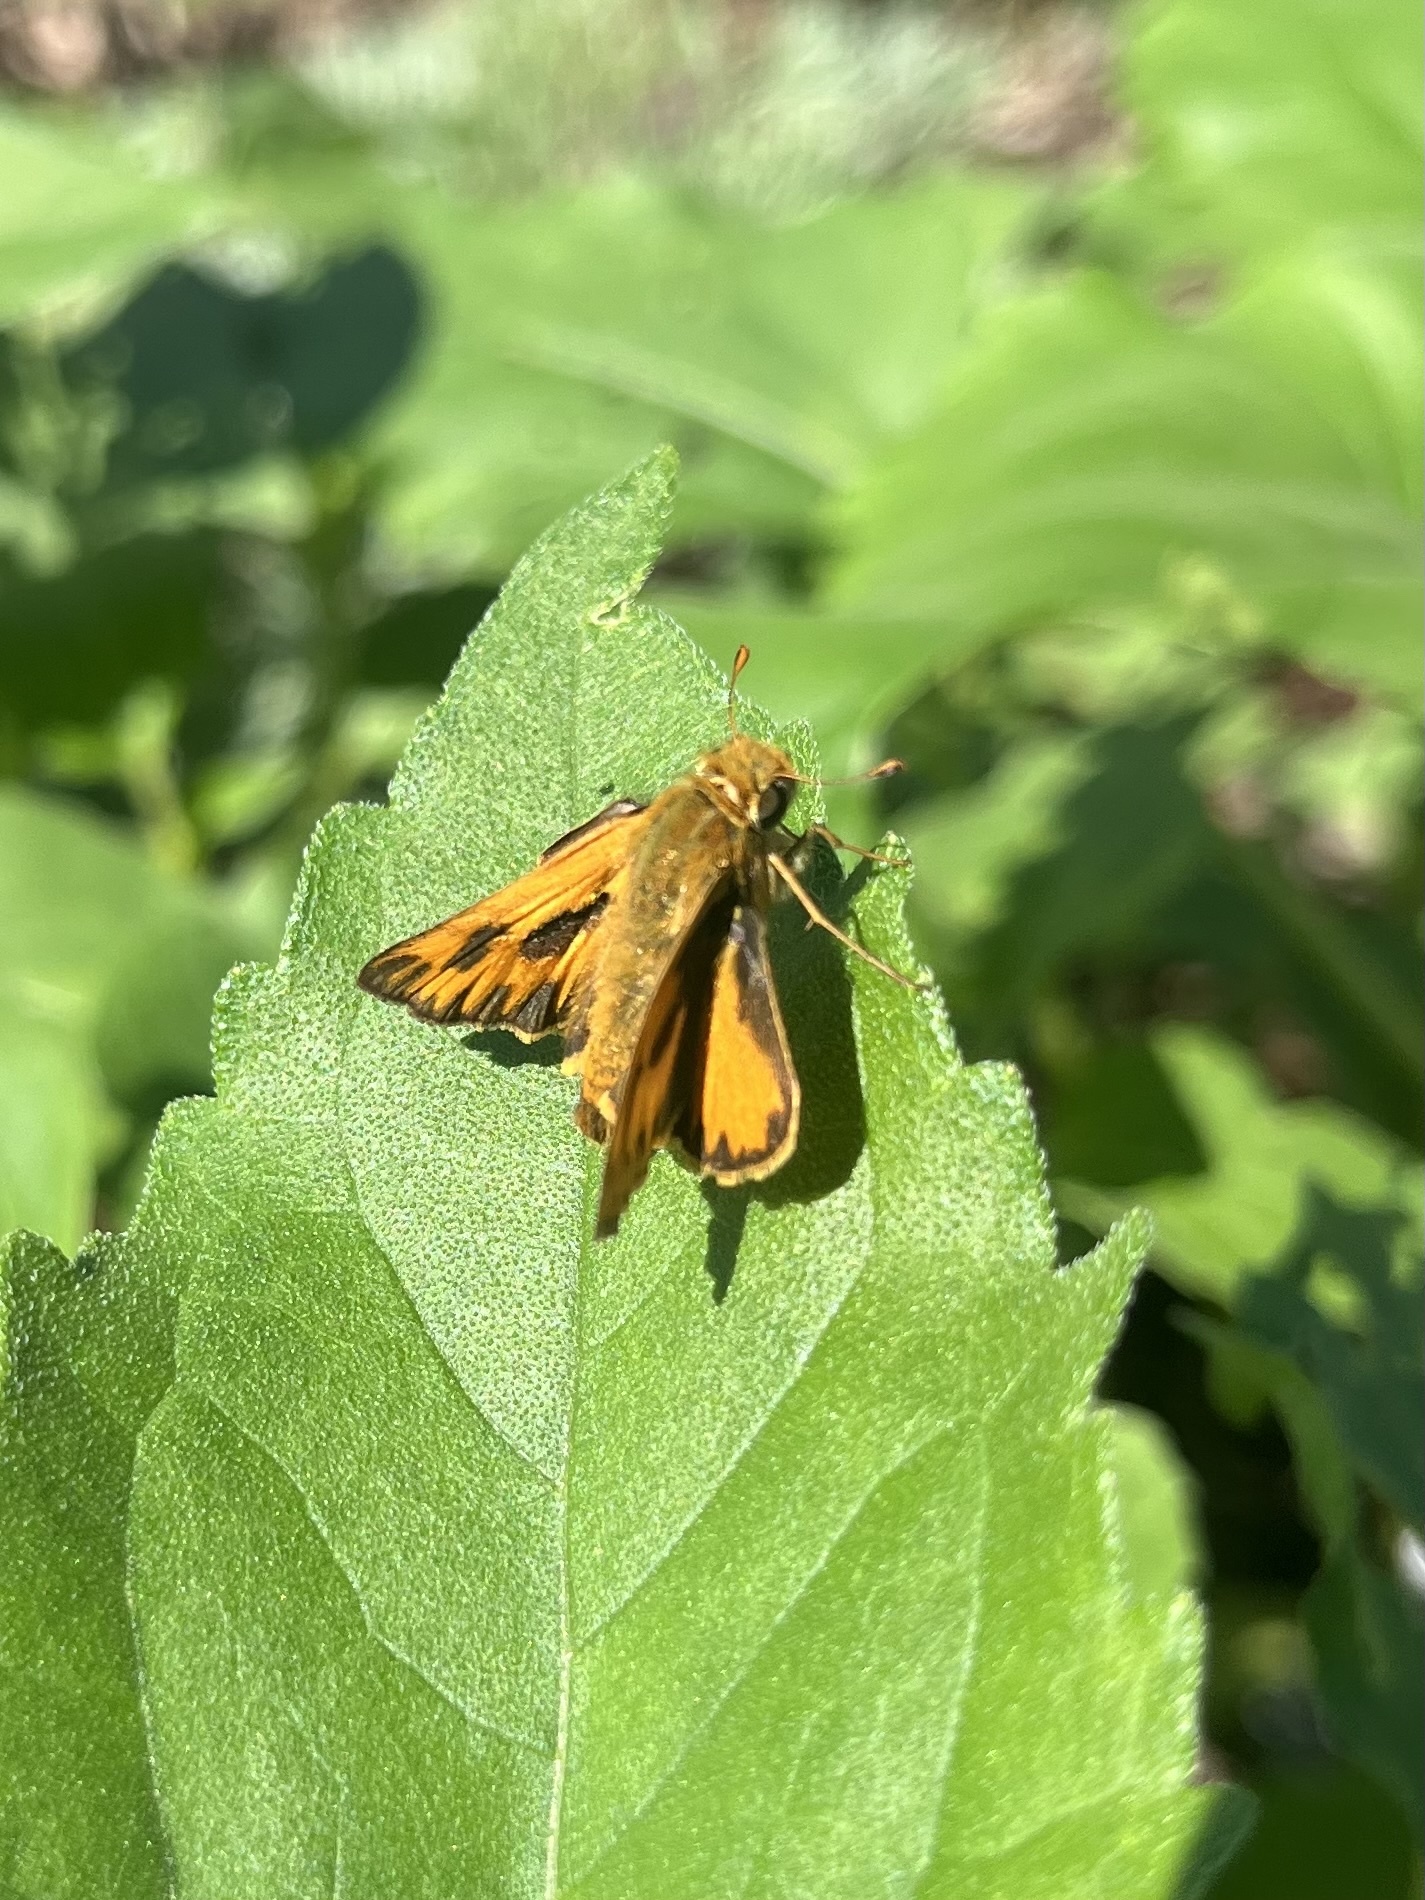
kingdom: Animalia
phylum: Arthropoda
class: Insecta
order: Lepidoptera
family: Hesperiidae
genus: Hylephila
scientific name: Hylephila phyleus
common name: Fiery skipper
